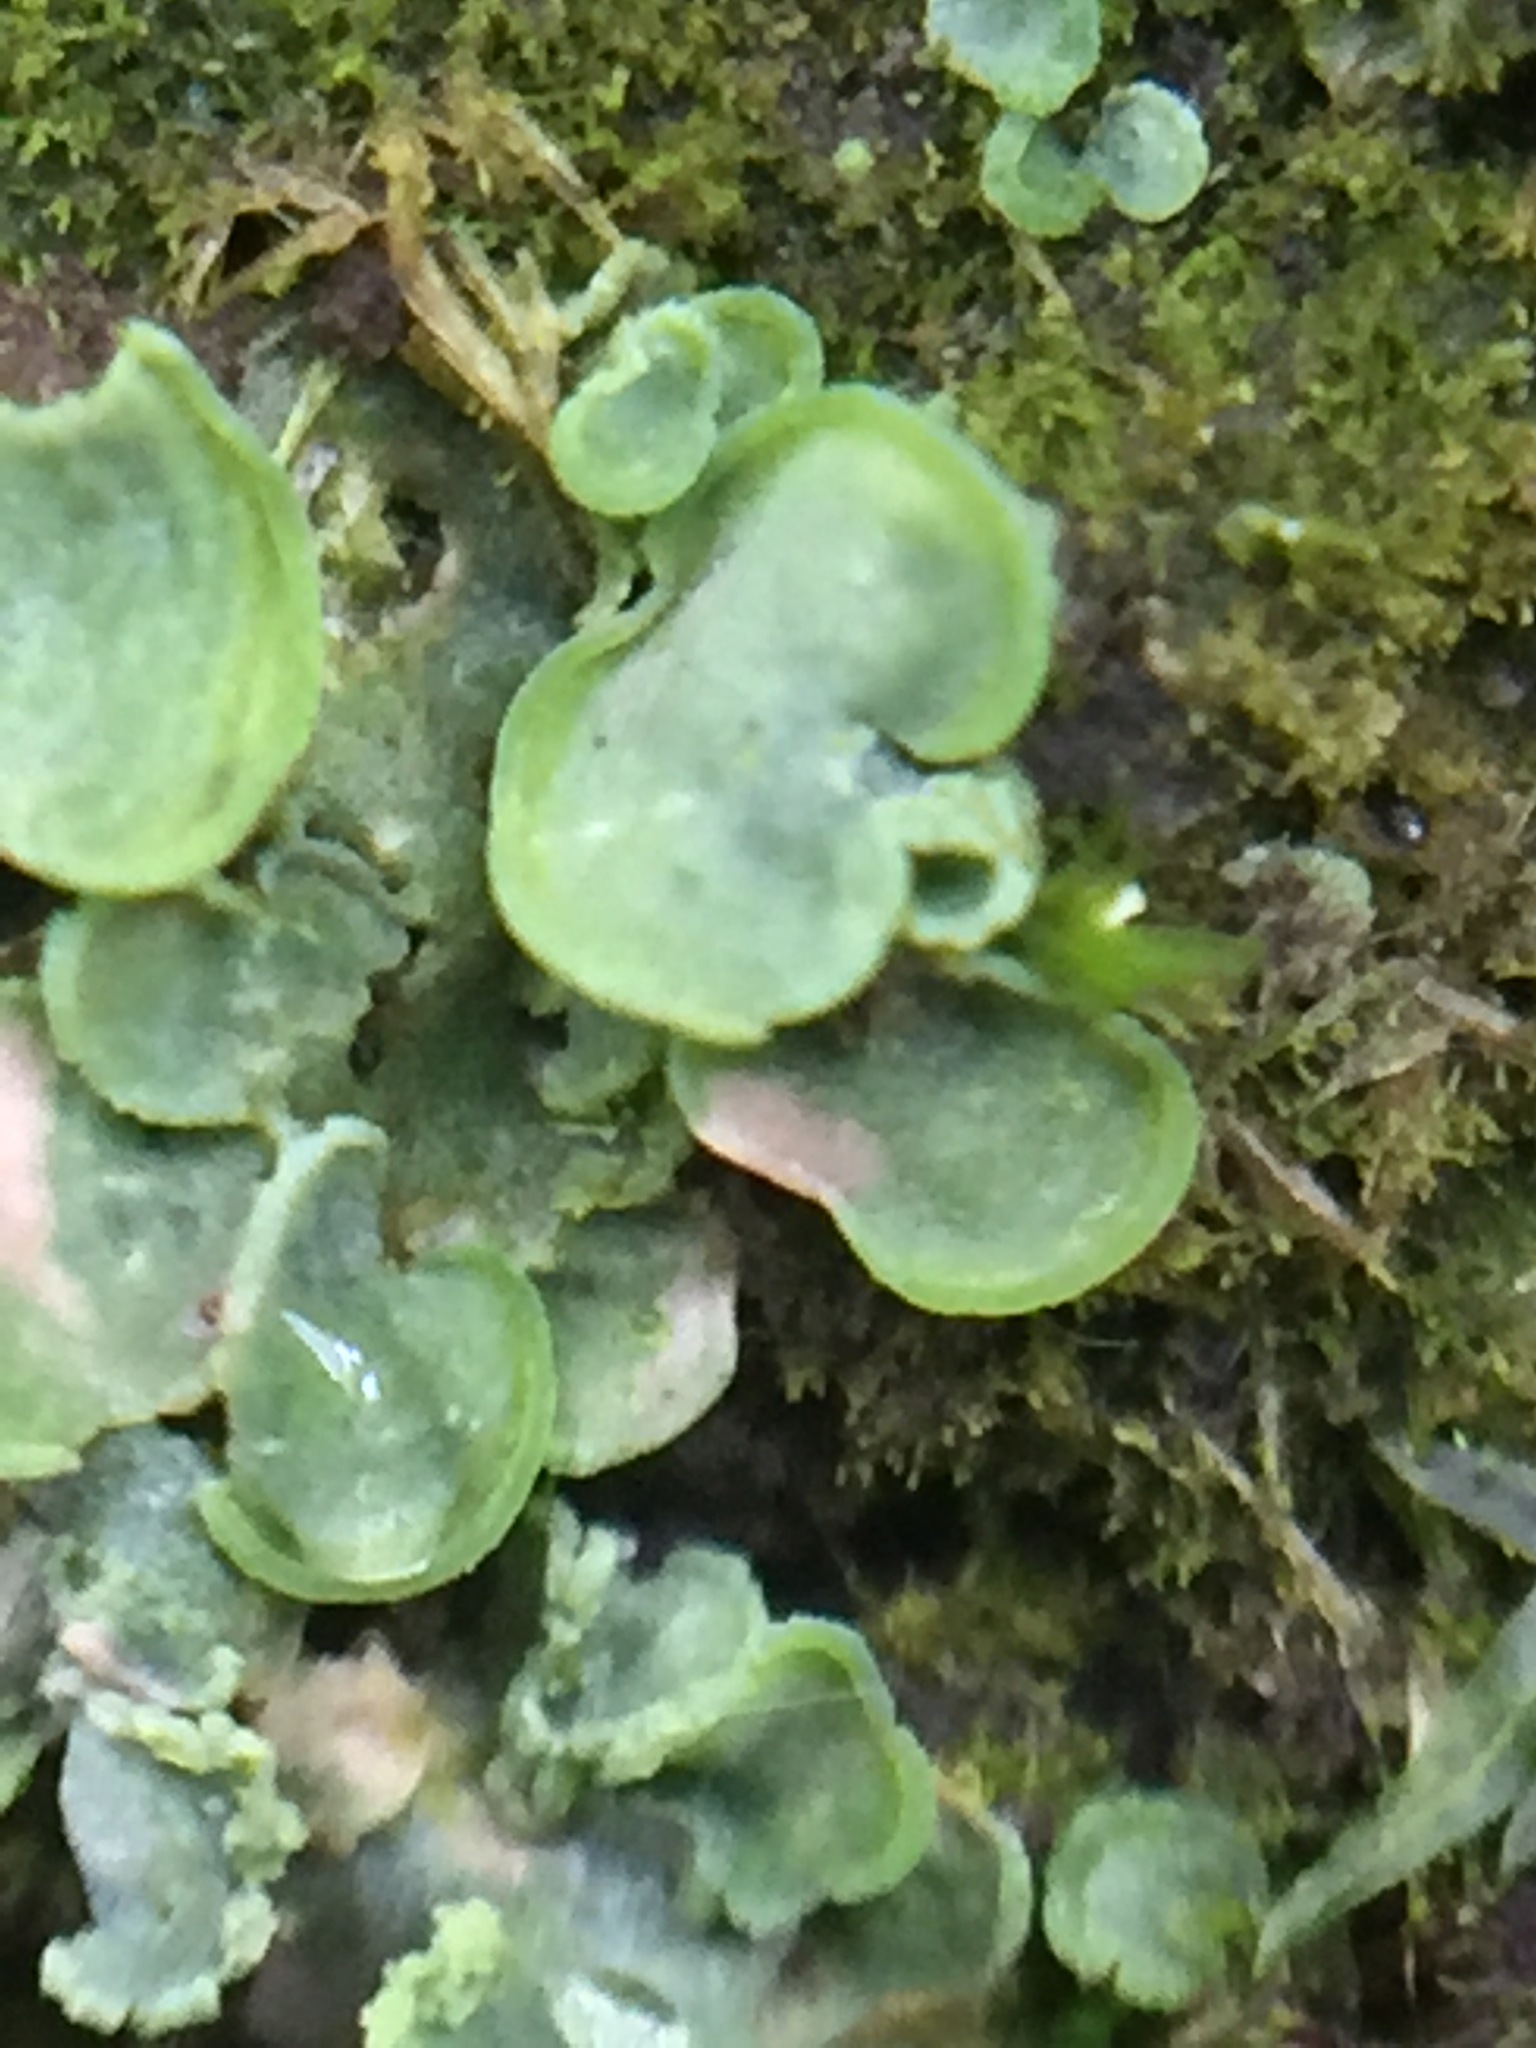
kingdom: Fungi
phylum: Ascomycota
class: Eurotiomycetes
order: Verrucariales
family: Verrucariaceae
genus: Normandina
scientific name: Normandina pulchella
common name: Elf ears lichen
